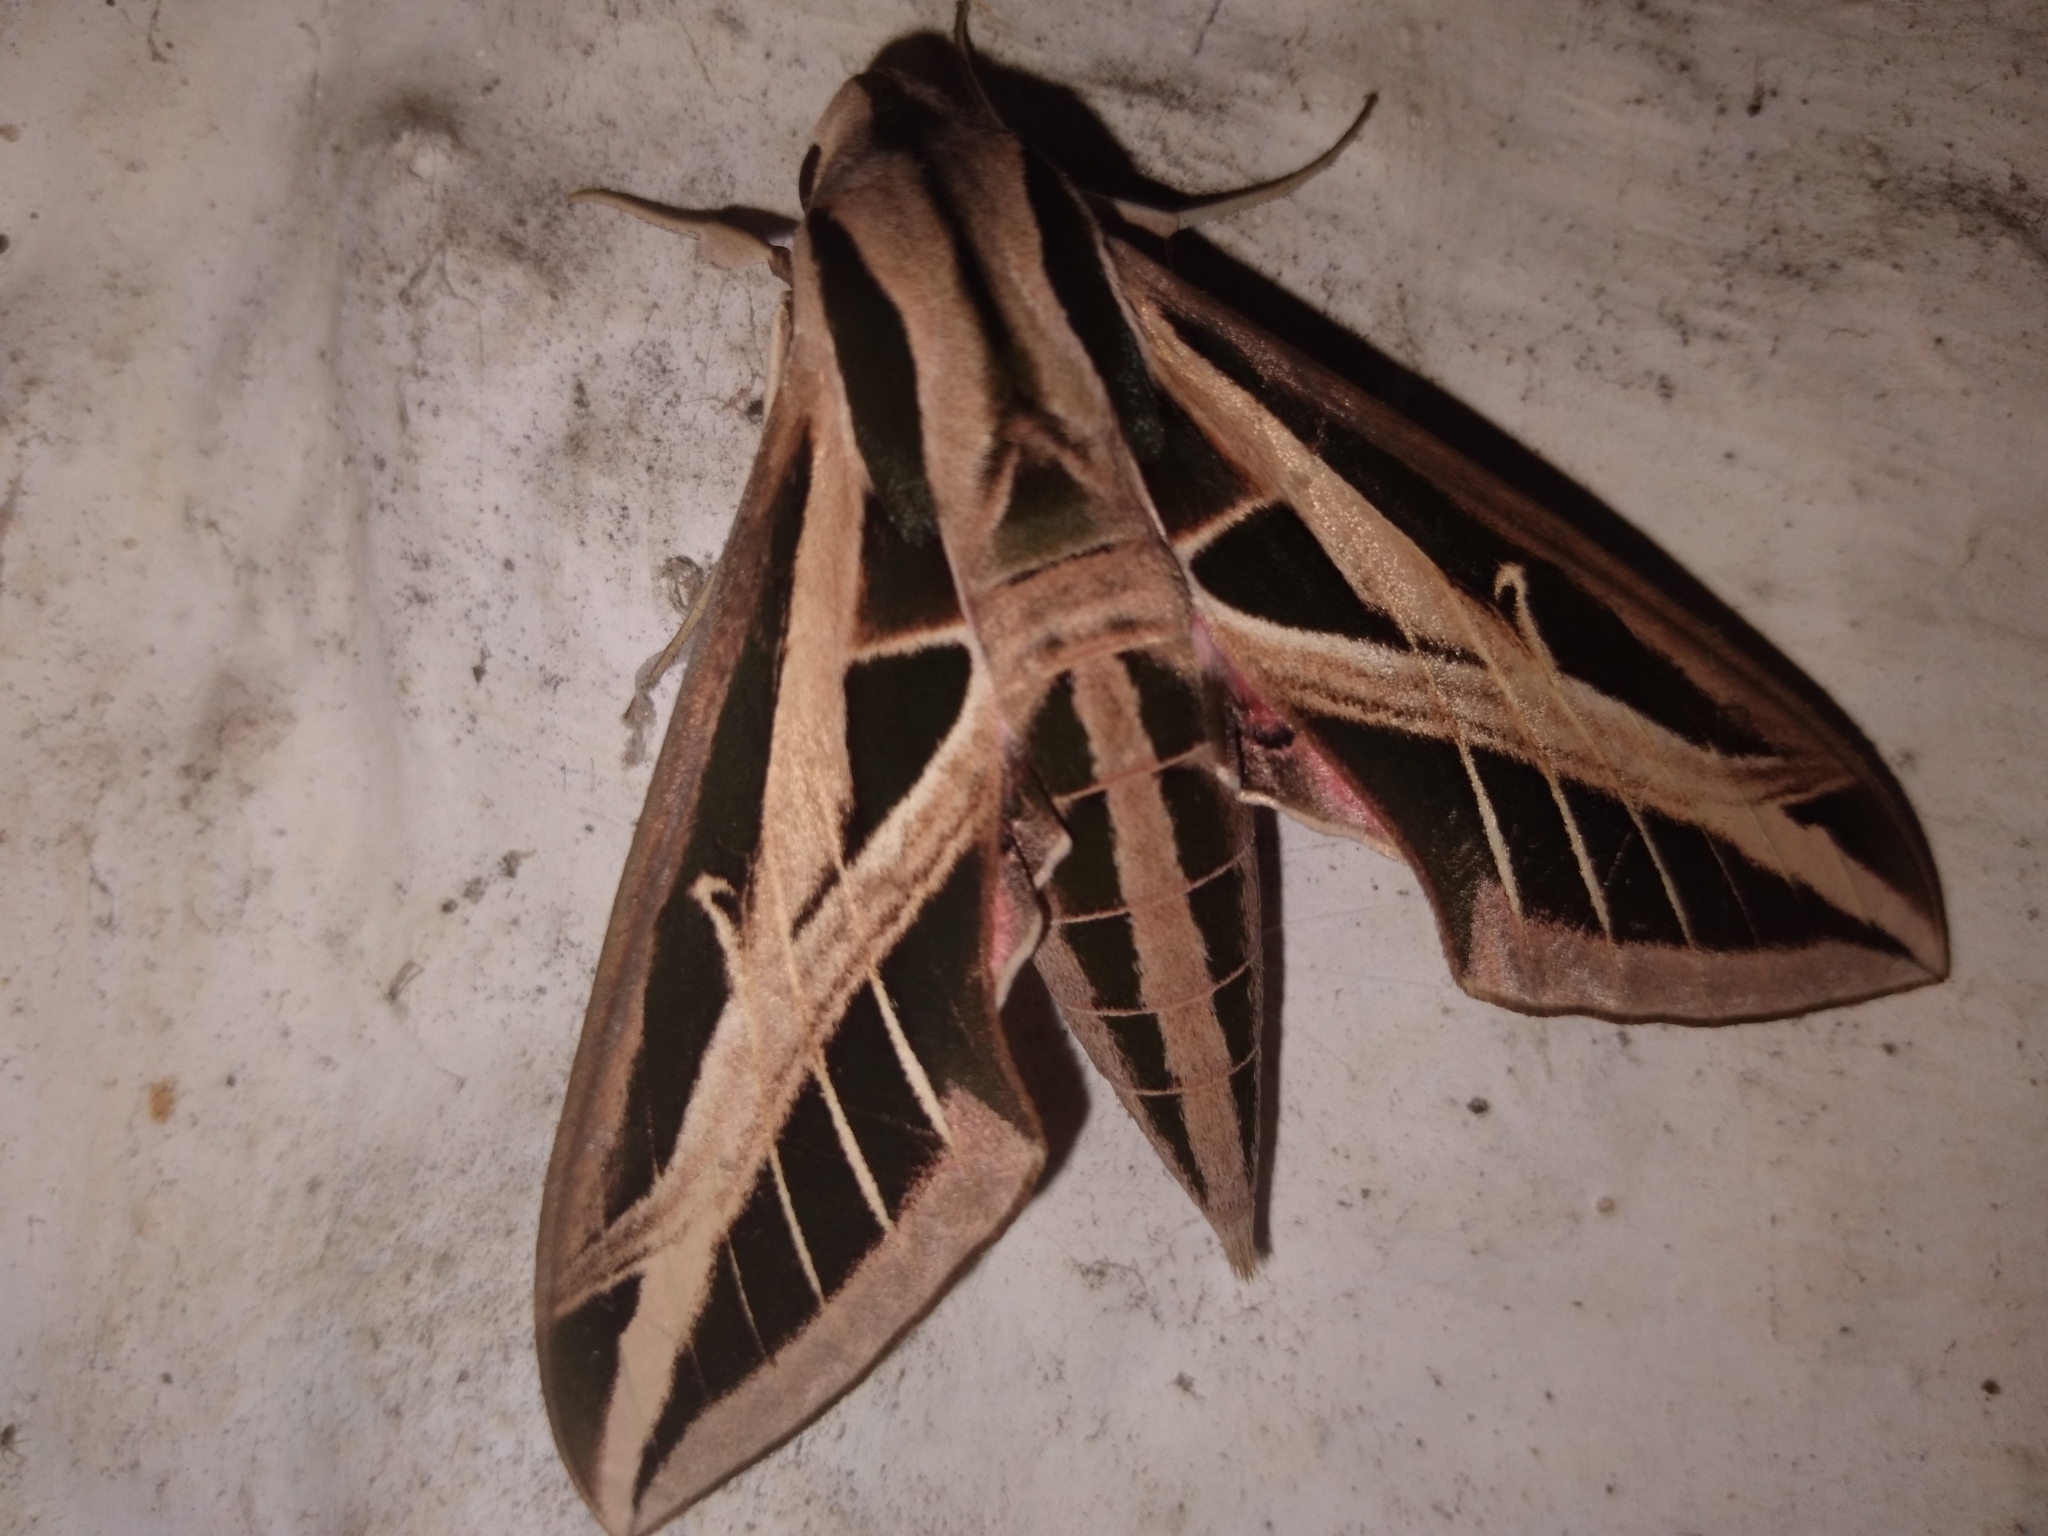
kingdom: Animalia
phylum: Arthropoda
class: Insecta
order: Lepidoptera
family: Sphingidae
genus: Eumorpha
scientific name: Eumorpha fasciatus
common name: Banded sphinx
